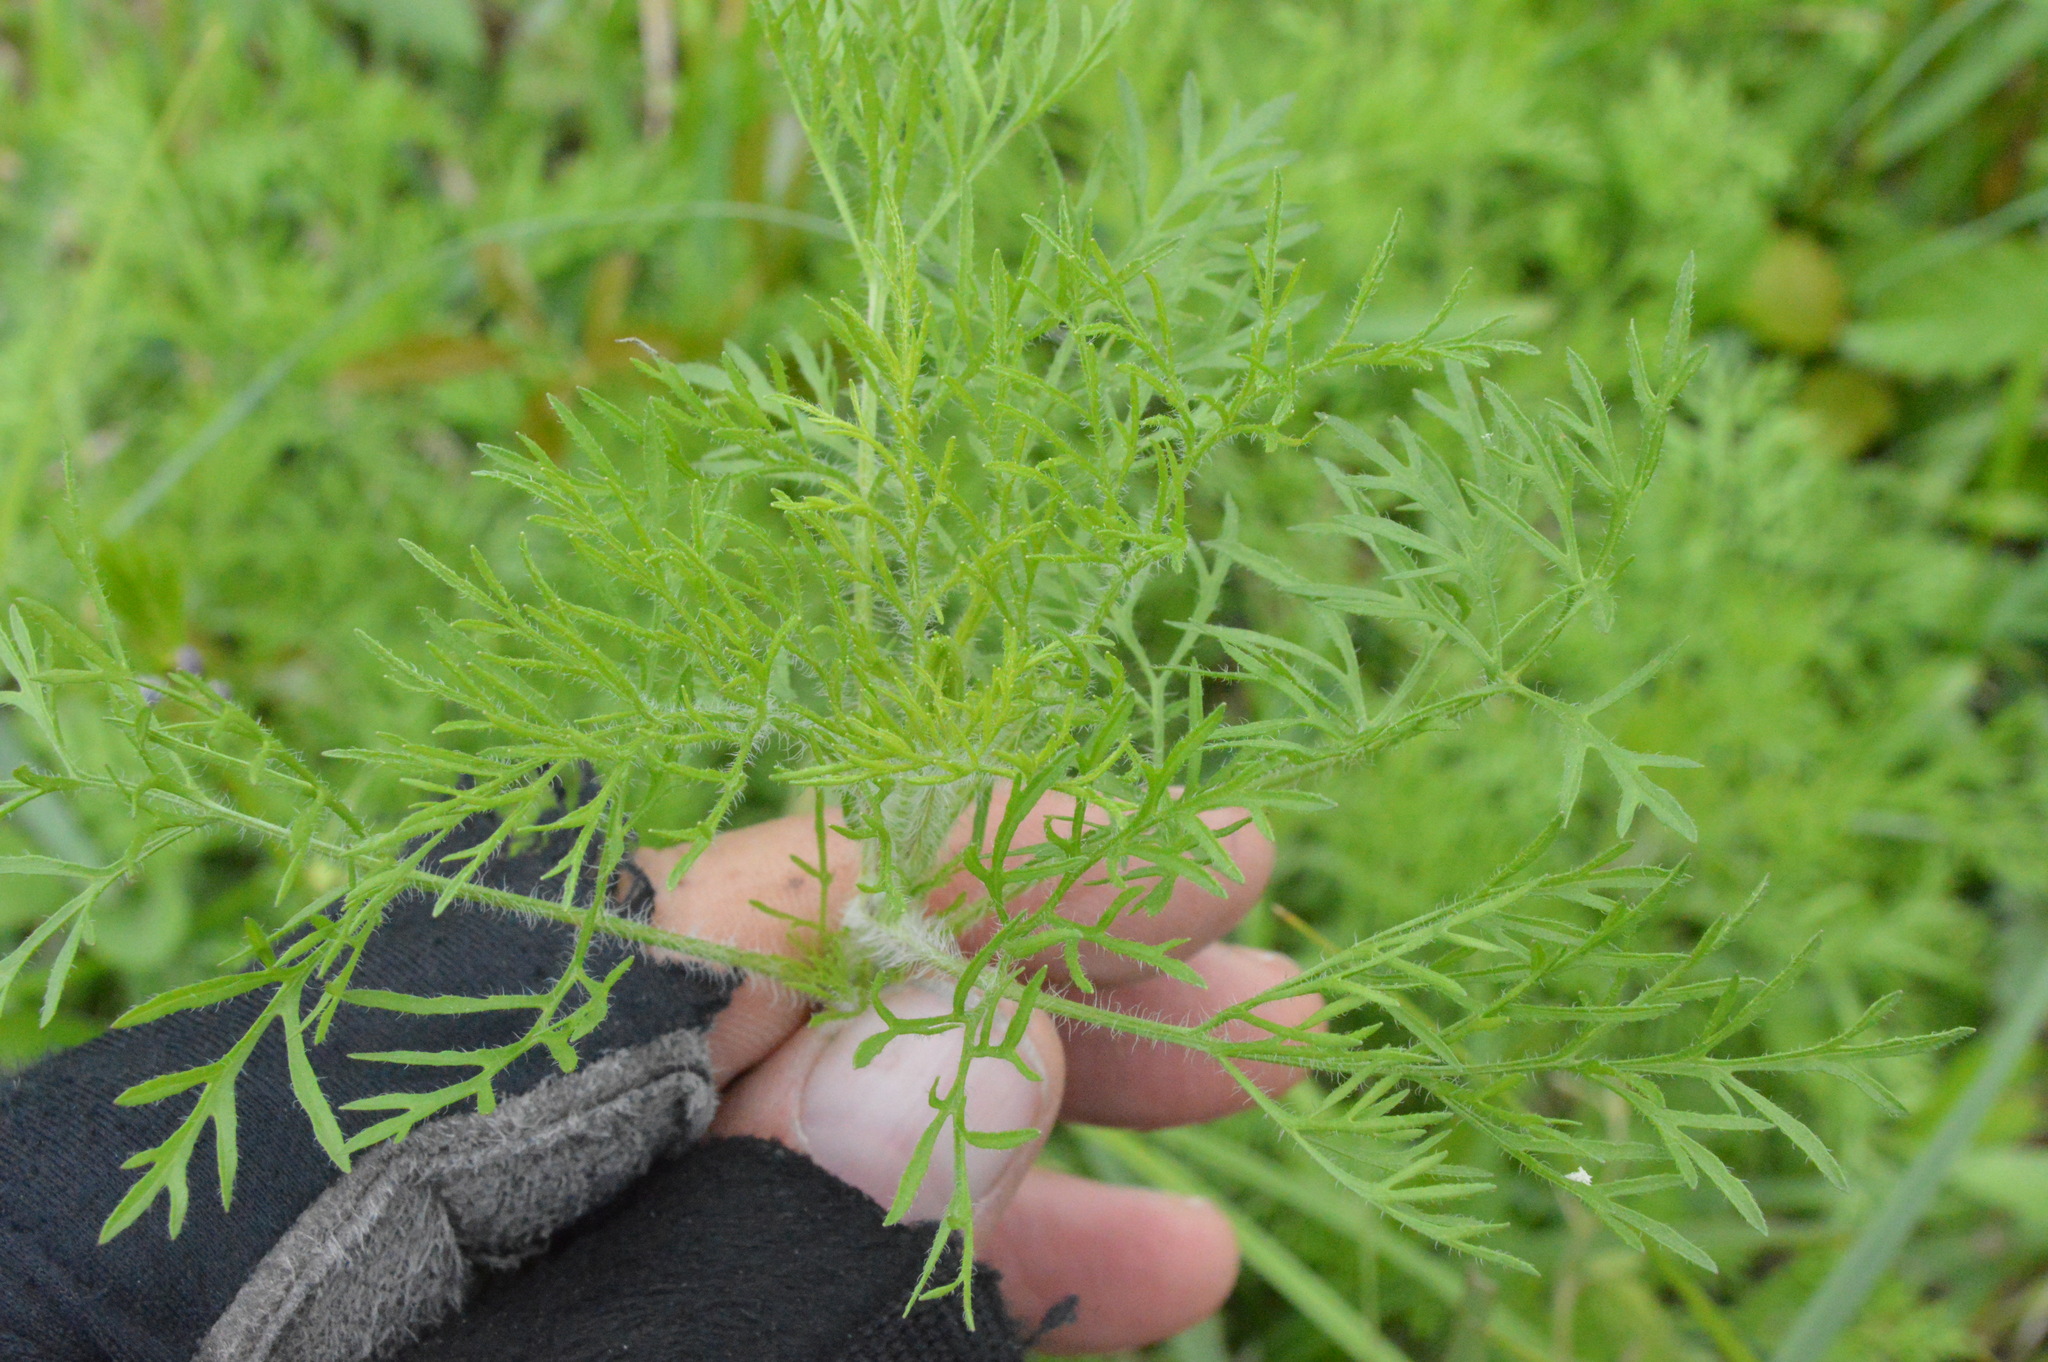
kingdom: Plantae
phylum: Tracheophyta
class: Magnoliopsida
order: Asterales
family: Asteraceae
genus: Eupatorium
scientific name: Eupatorium capillifolium
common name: Dog-fennel
